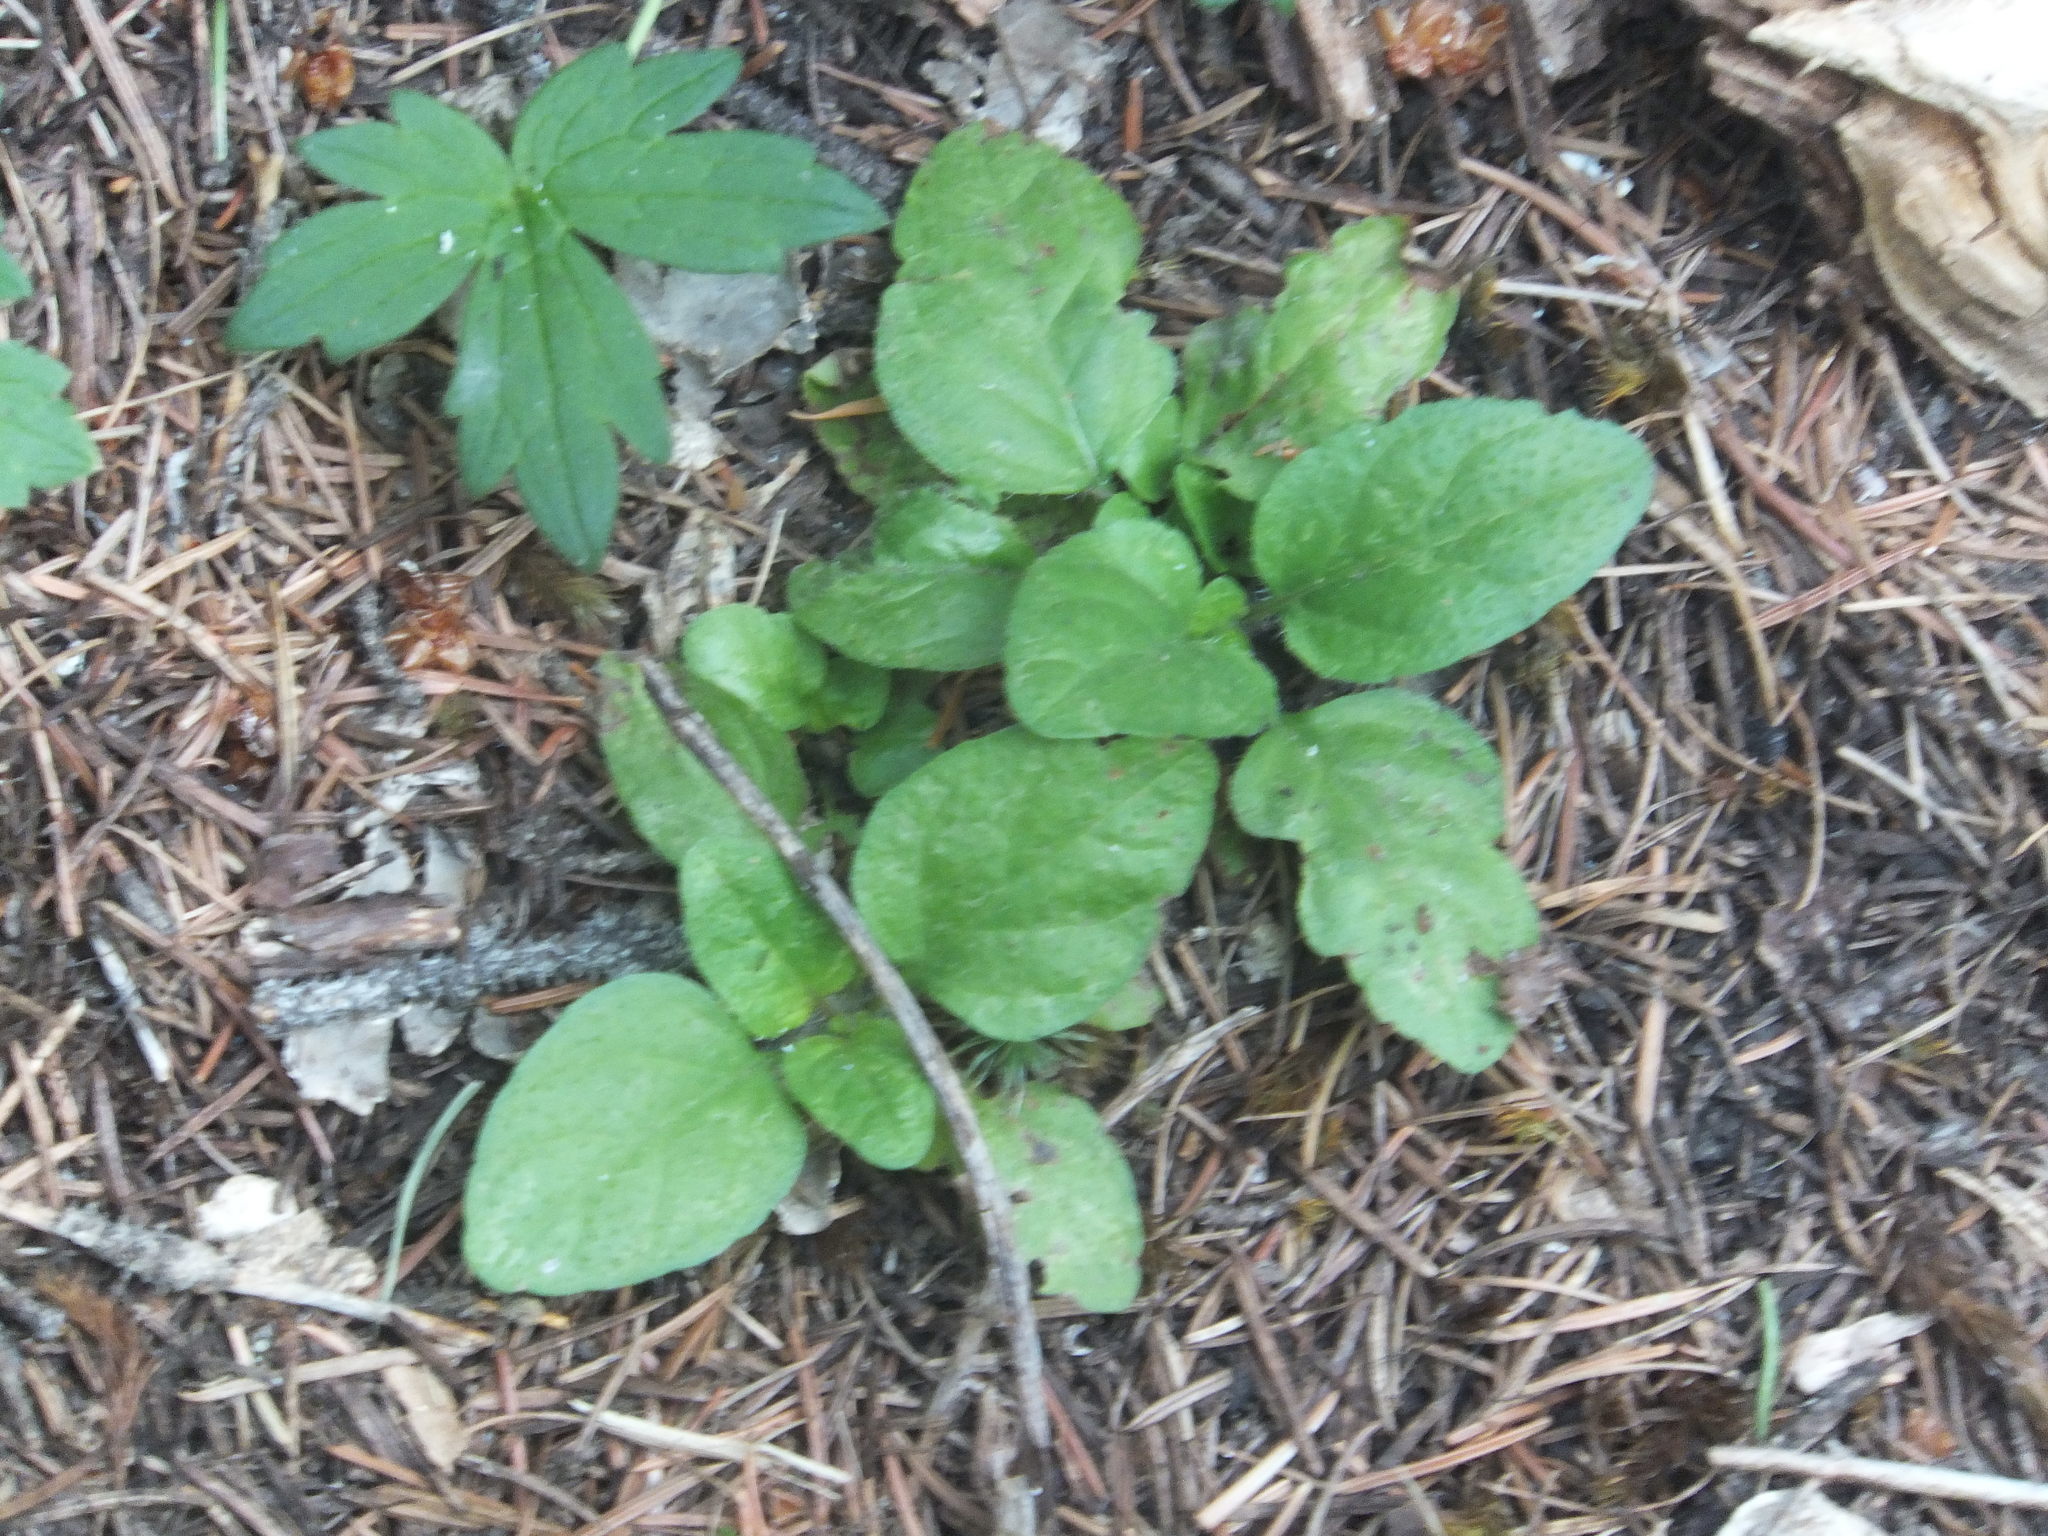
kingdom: Plantae
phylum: Tracheophyta
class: Magnoliopsida
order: Lamiales
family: Lamiaceae
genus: Prunella
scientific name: Prunella vulgaris
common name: Heal-all
